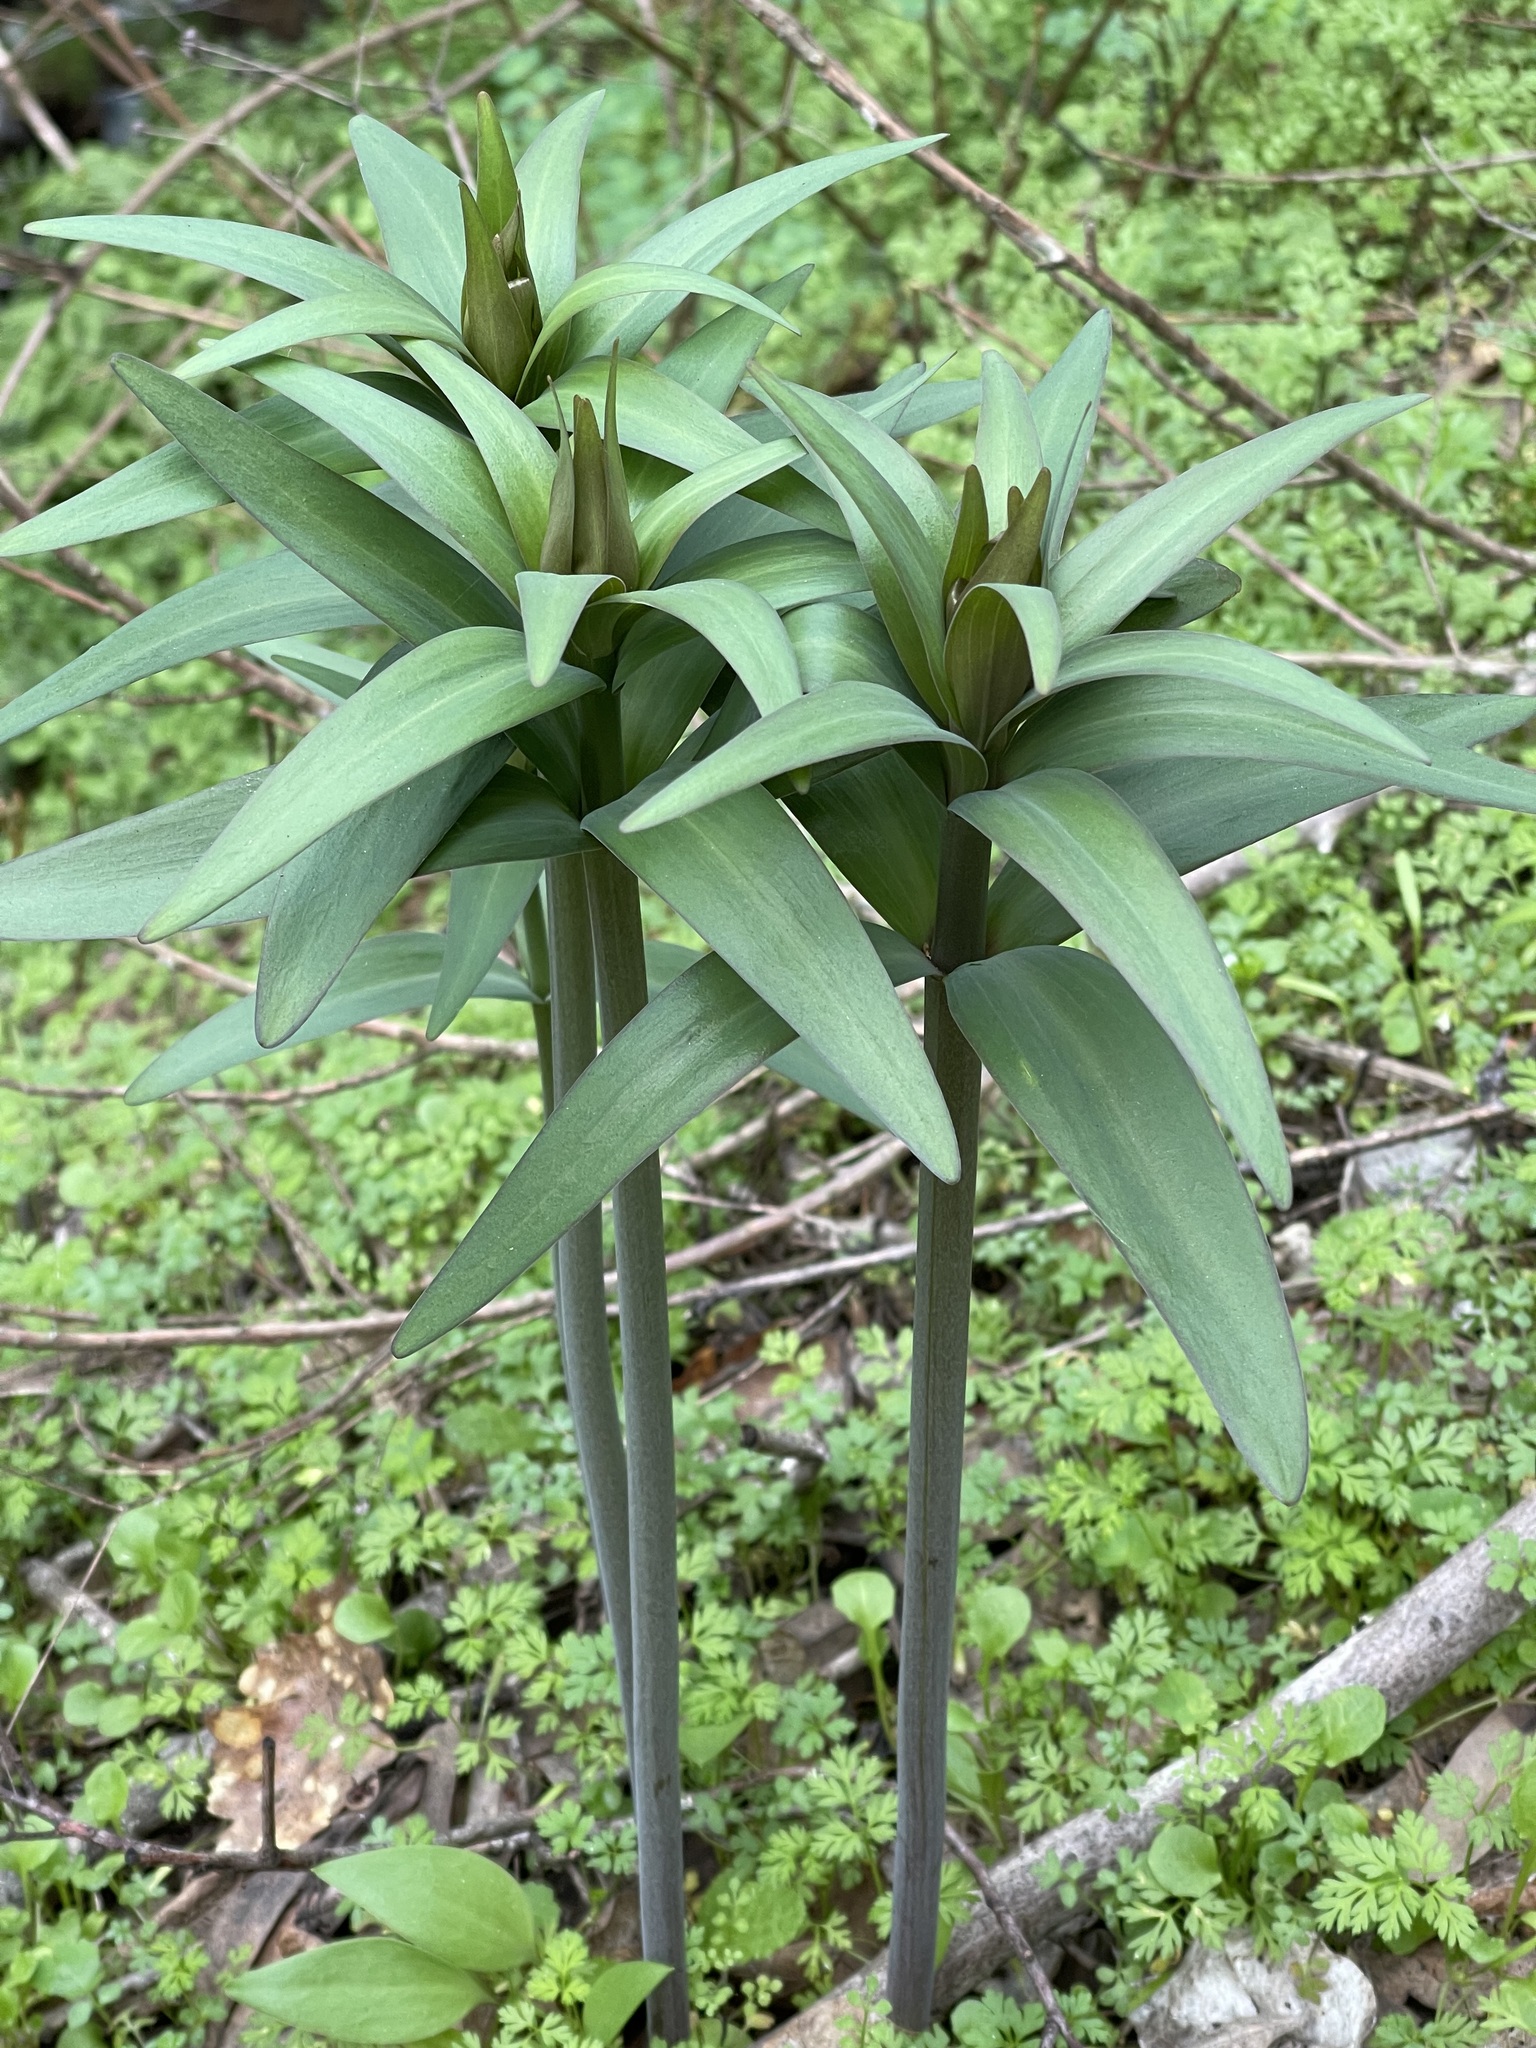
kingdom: Plantae
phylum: Tracheophyta
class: Liliopsida
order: Liliales
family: Liliaceae
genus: Fritillaria
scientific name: Fritillaria affinis
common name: Ojai fritillary
